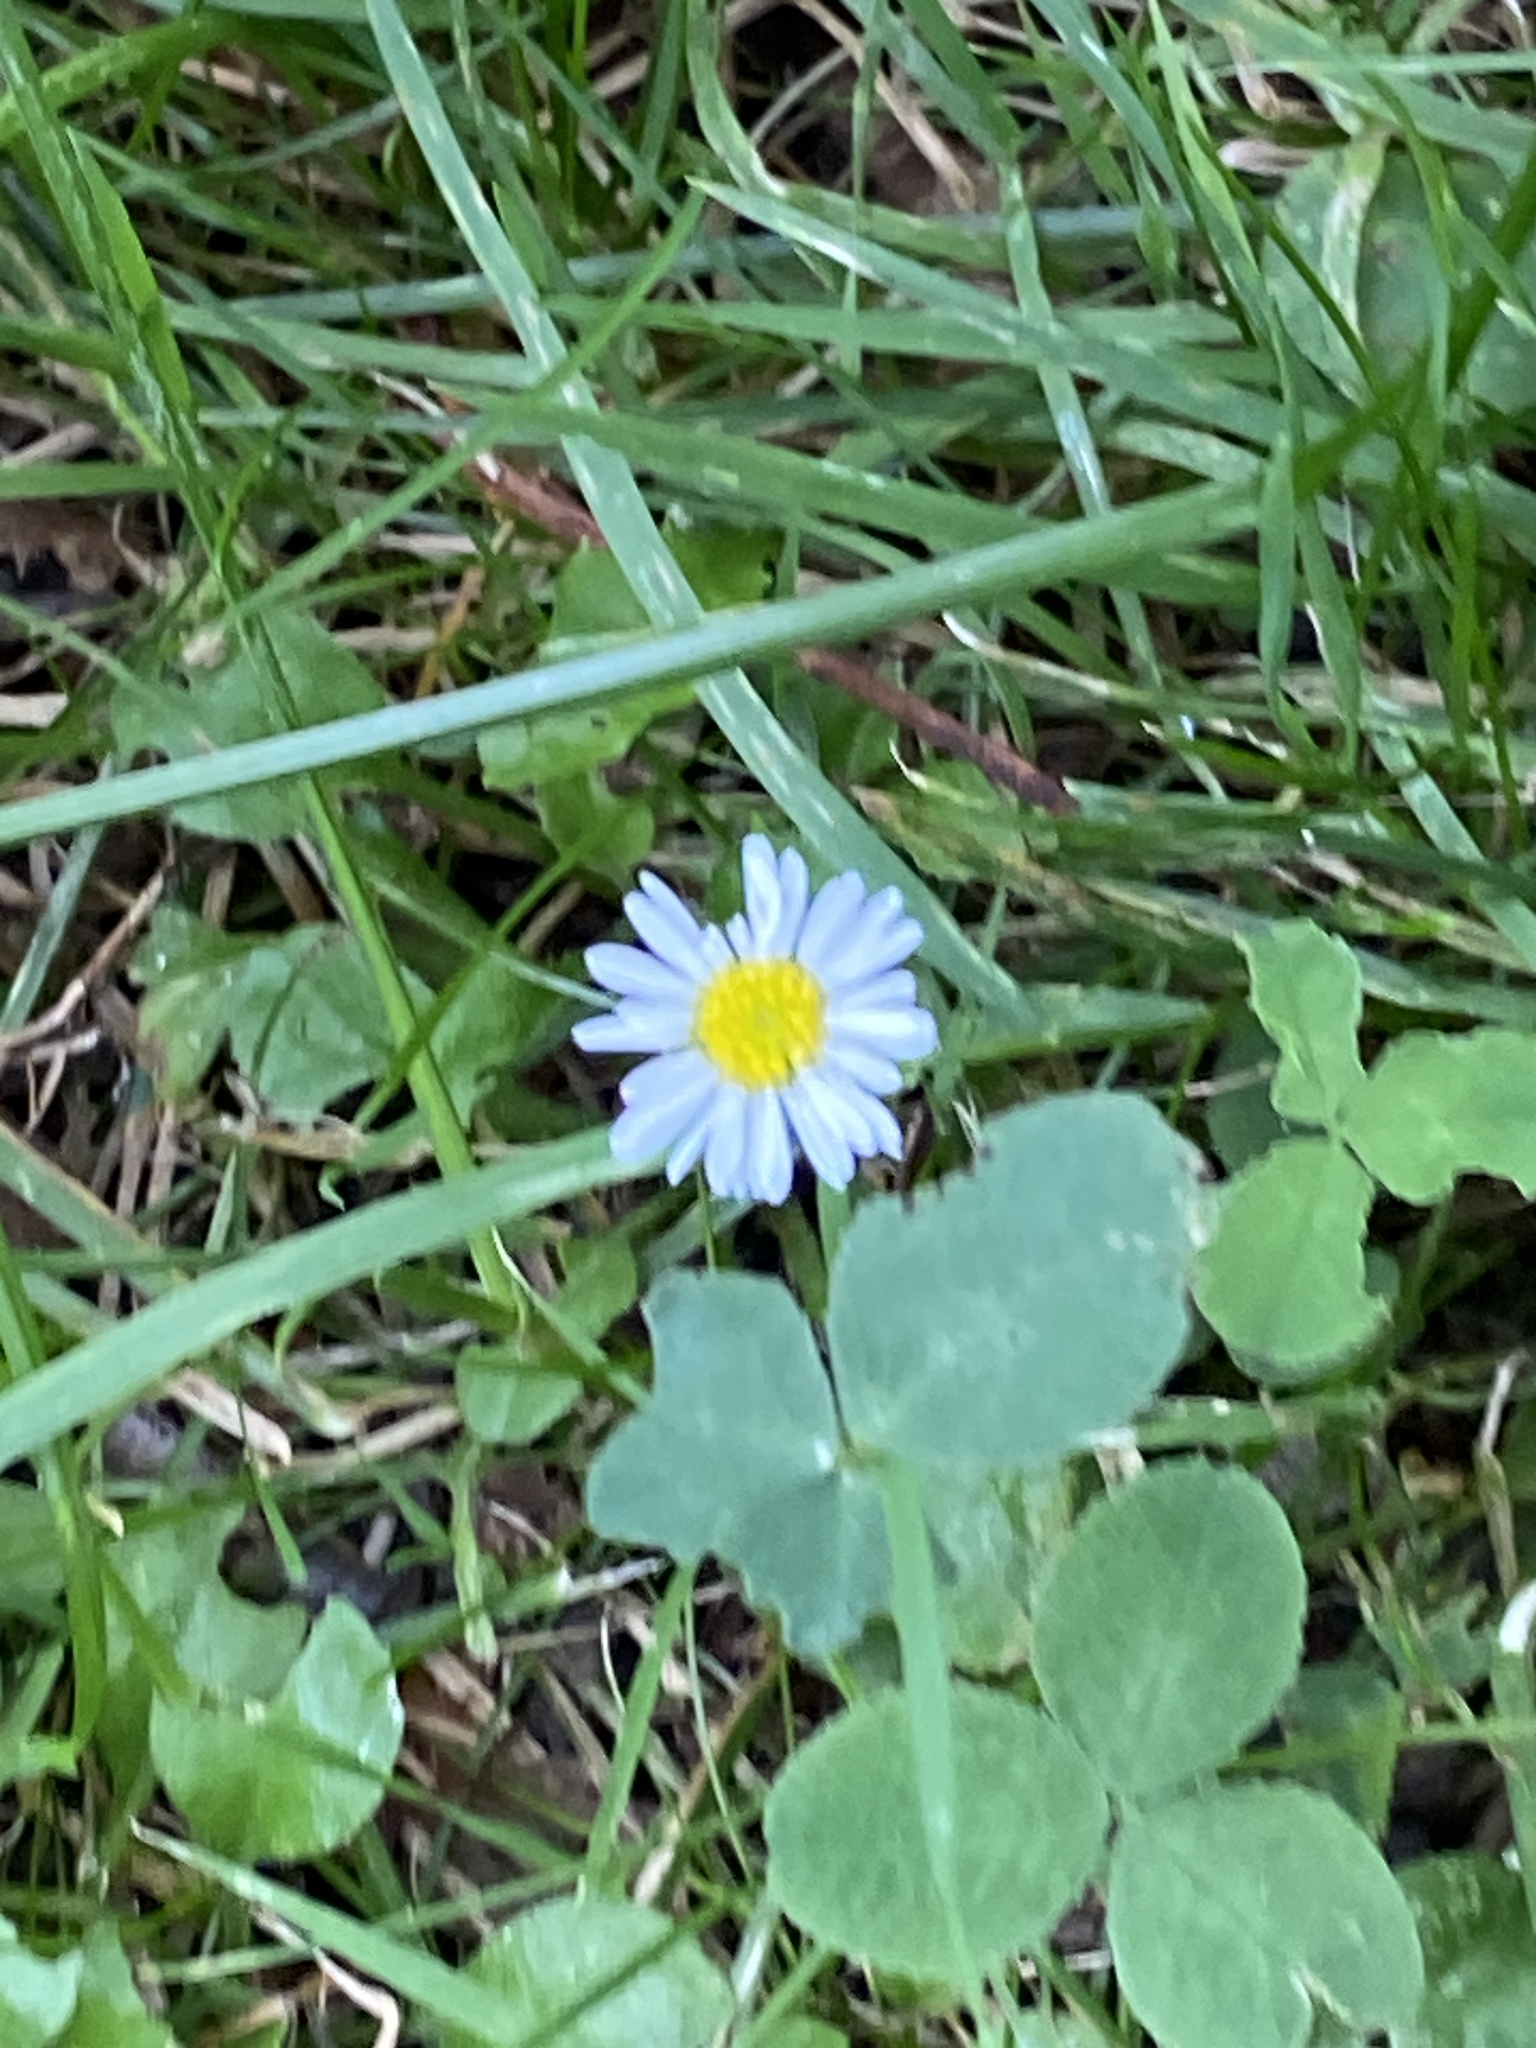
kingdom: Plantae
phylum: Tracheophyta
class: Magnoliopsida
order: Asterales
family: Asteraceae
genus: Bellis
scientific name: Bellis perennis
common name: Lawndaisy
